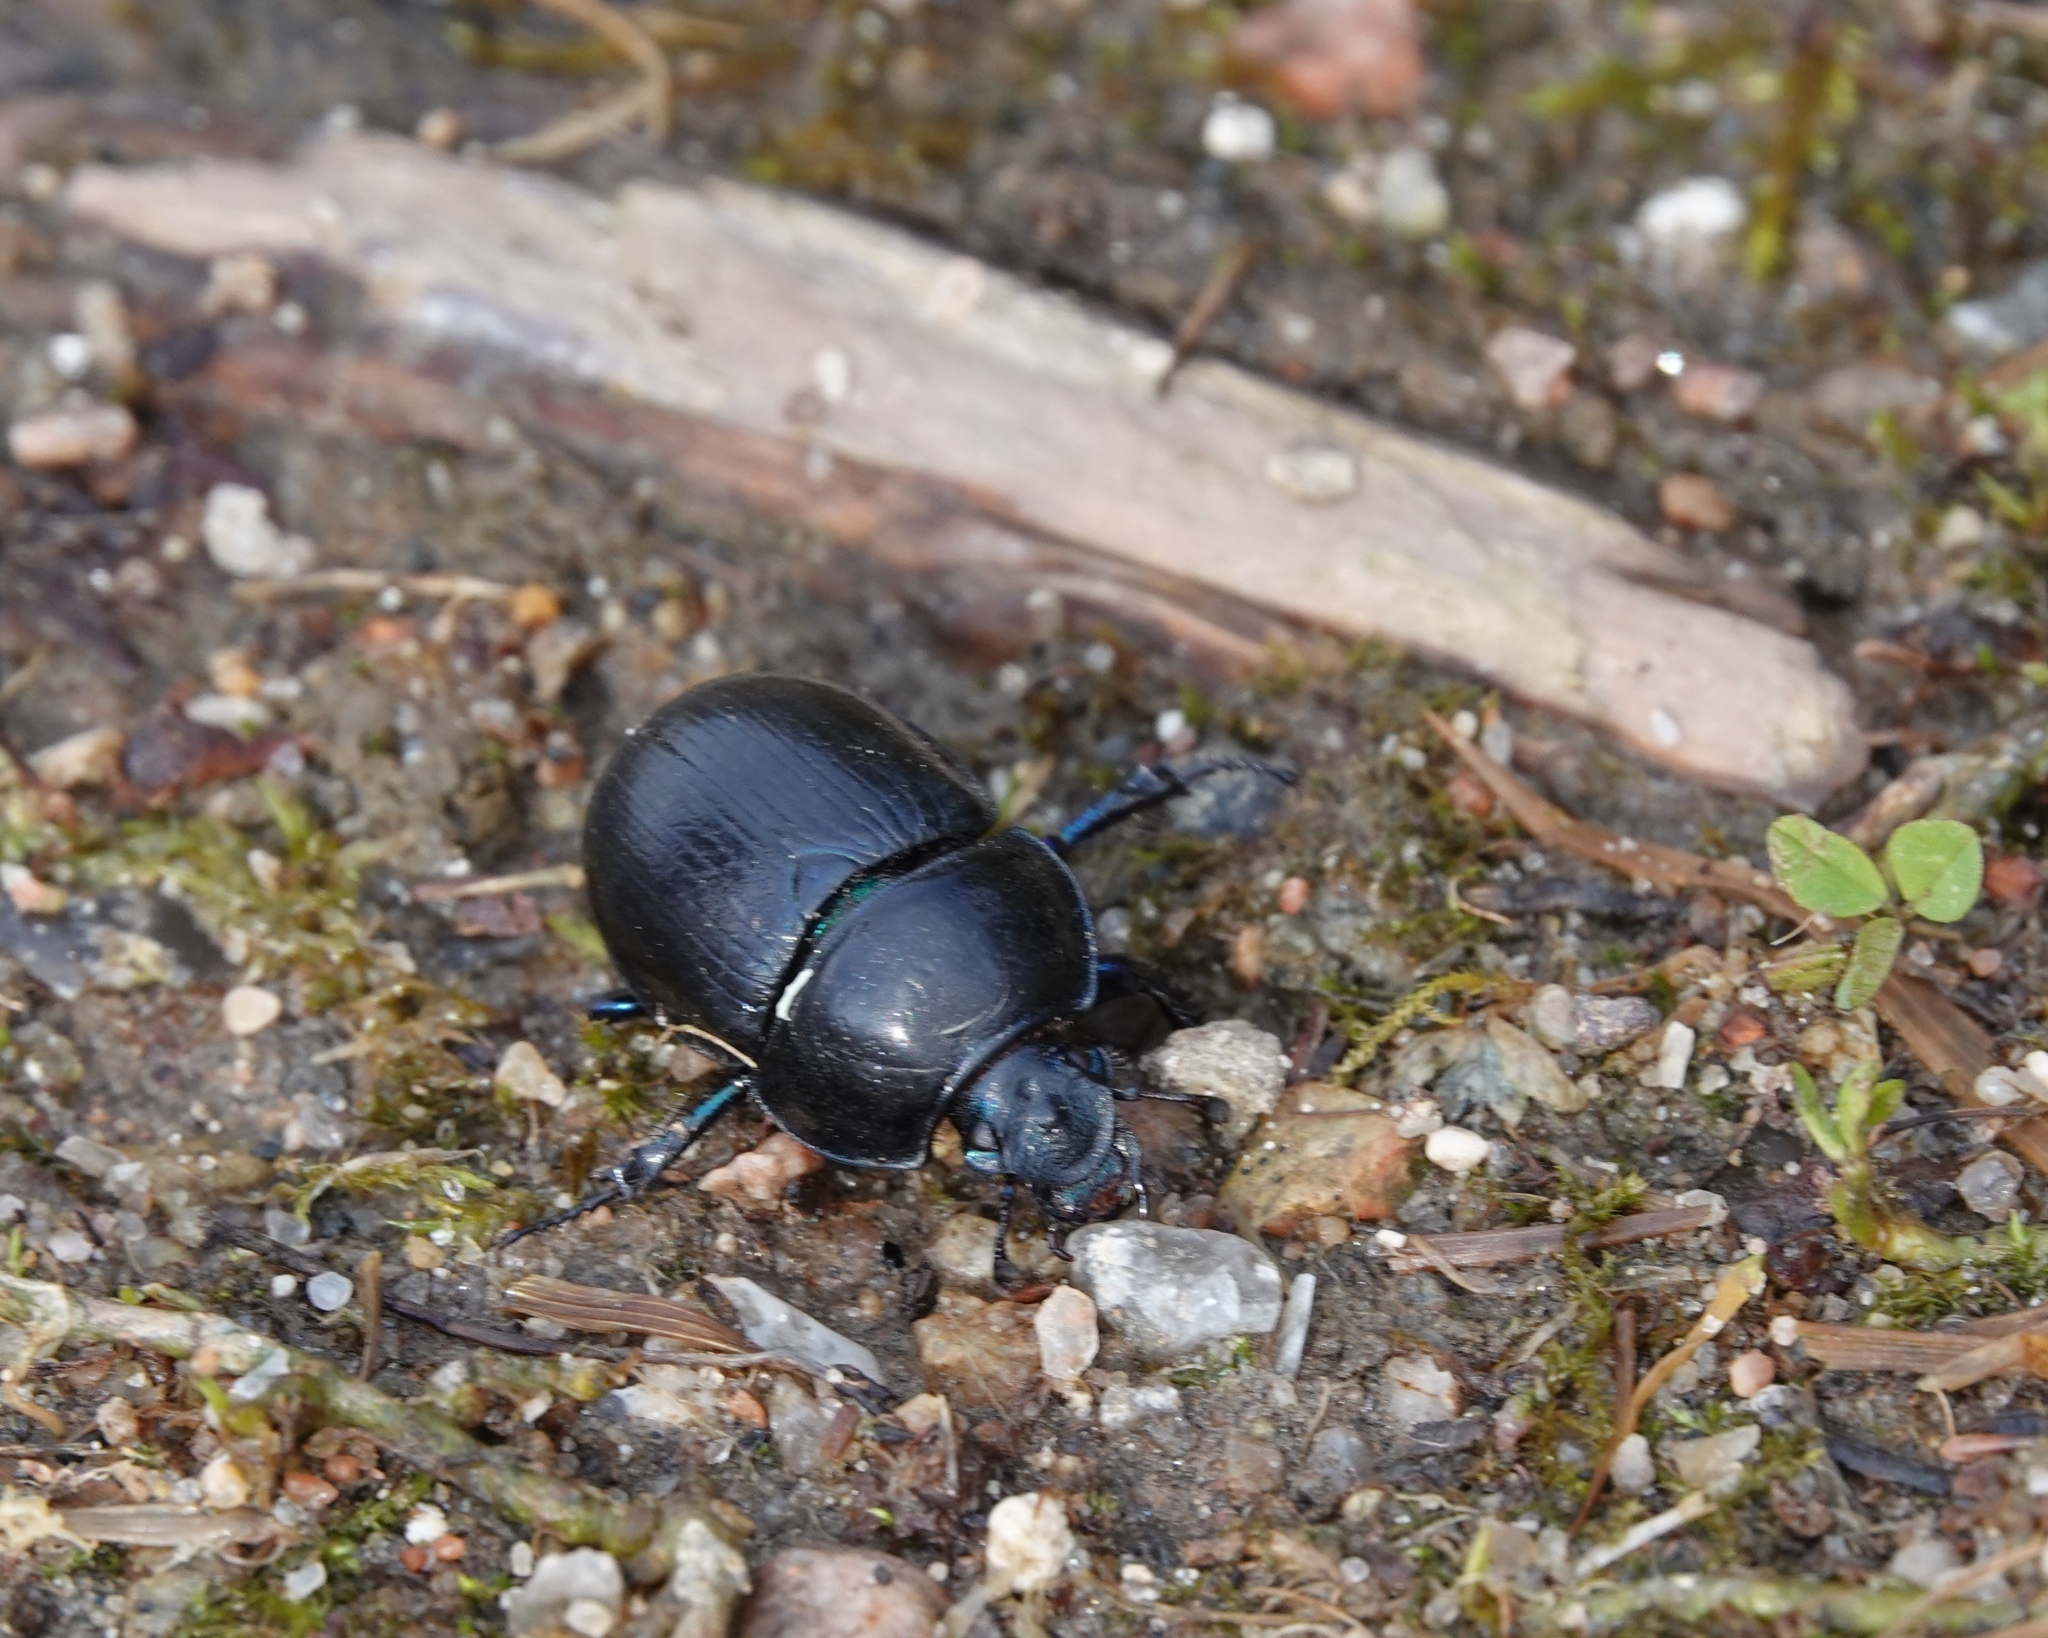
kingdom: Animalia
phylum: Arthropoda
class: Insecta
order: Coleoptera
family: Geotrupidae
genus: Anoplotrupes
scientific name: Anoplotrupes stercorosus
